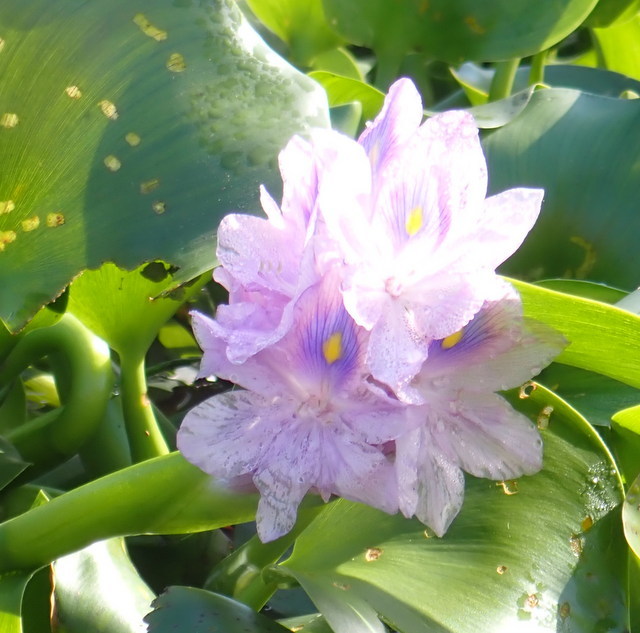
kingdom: Plantae
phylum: Tracheophyta
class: Liliopsida
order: Commelinales
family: Pontederiaceae
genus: Pontederia
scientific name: Pontederia crassipes
